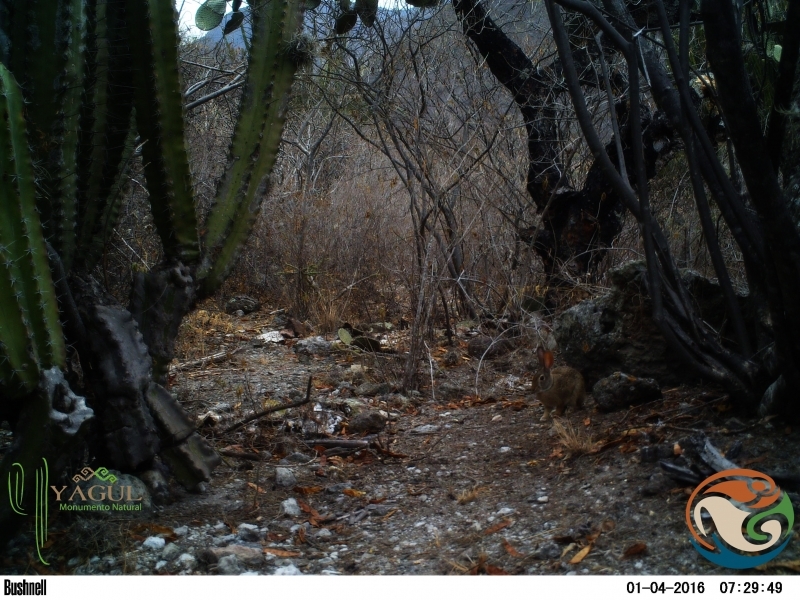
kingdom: Animalia
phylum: Chordata
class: Mammalia
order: Lagomorpha
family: Leporidae
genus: Sylvilagus
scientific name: Sylvilagus cunicularius
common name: Mexican cottontail
